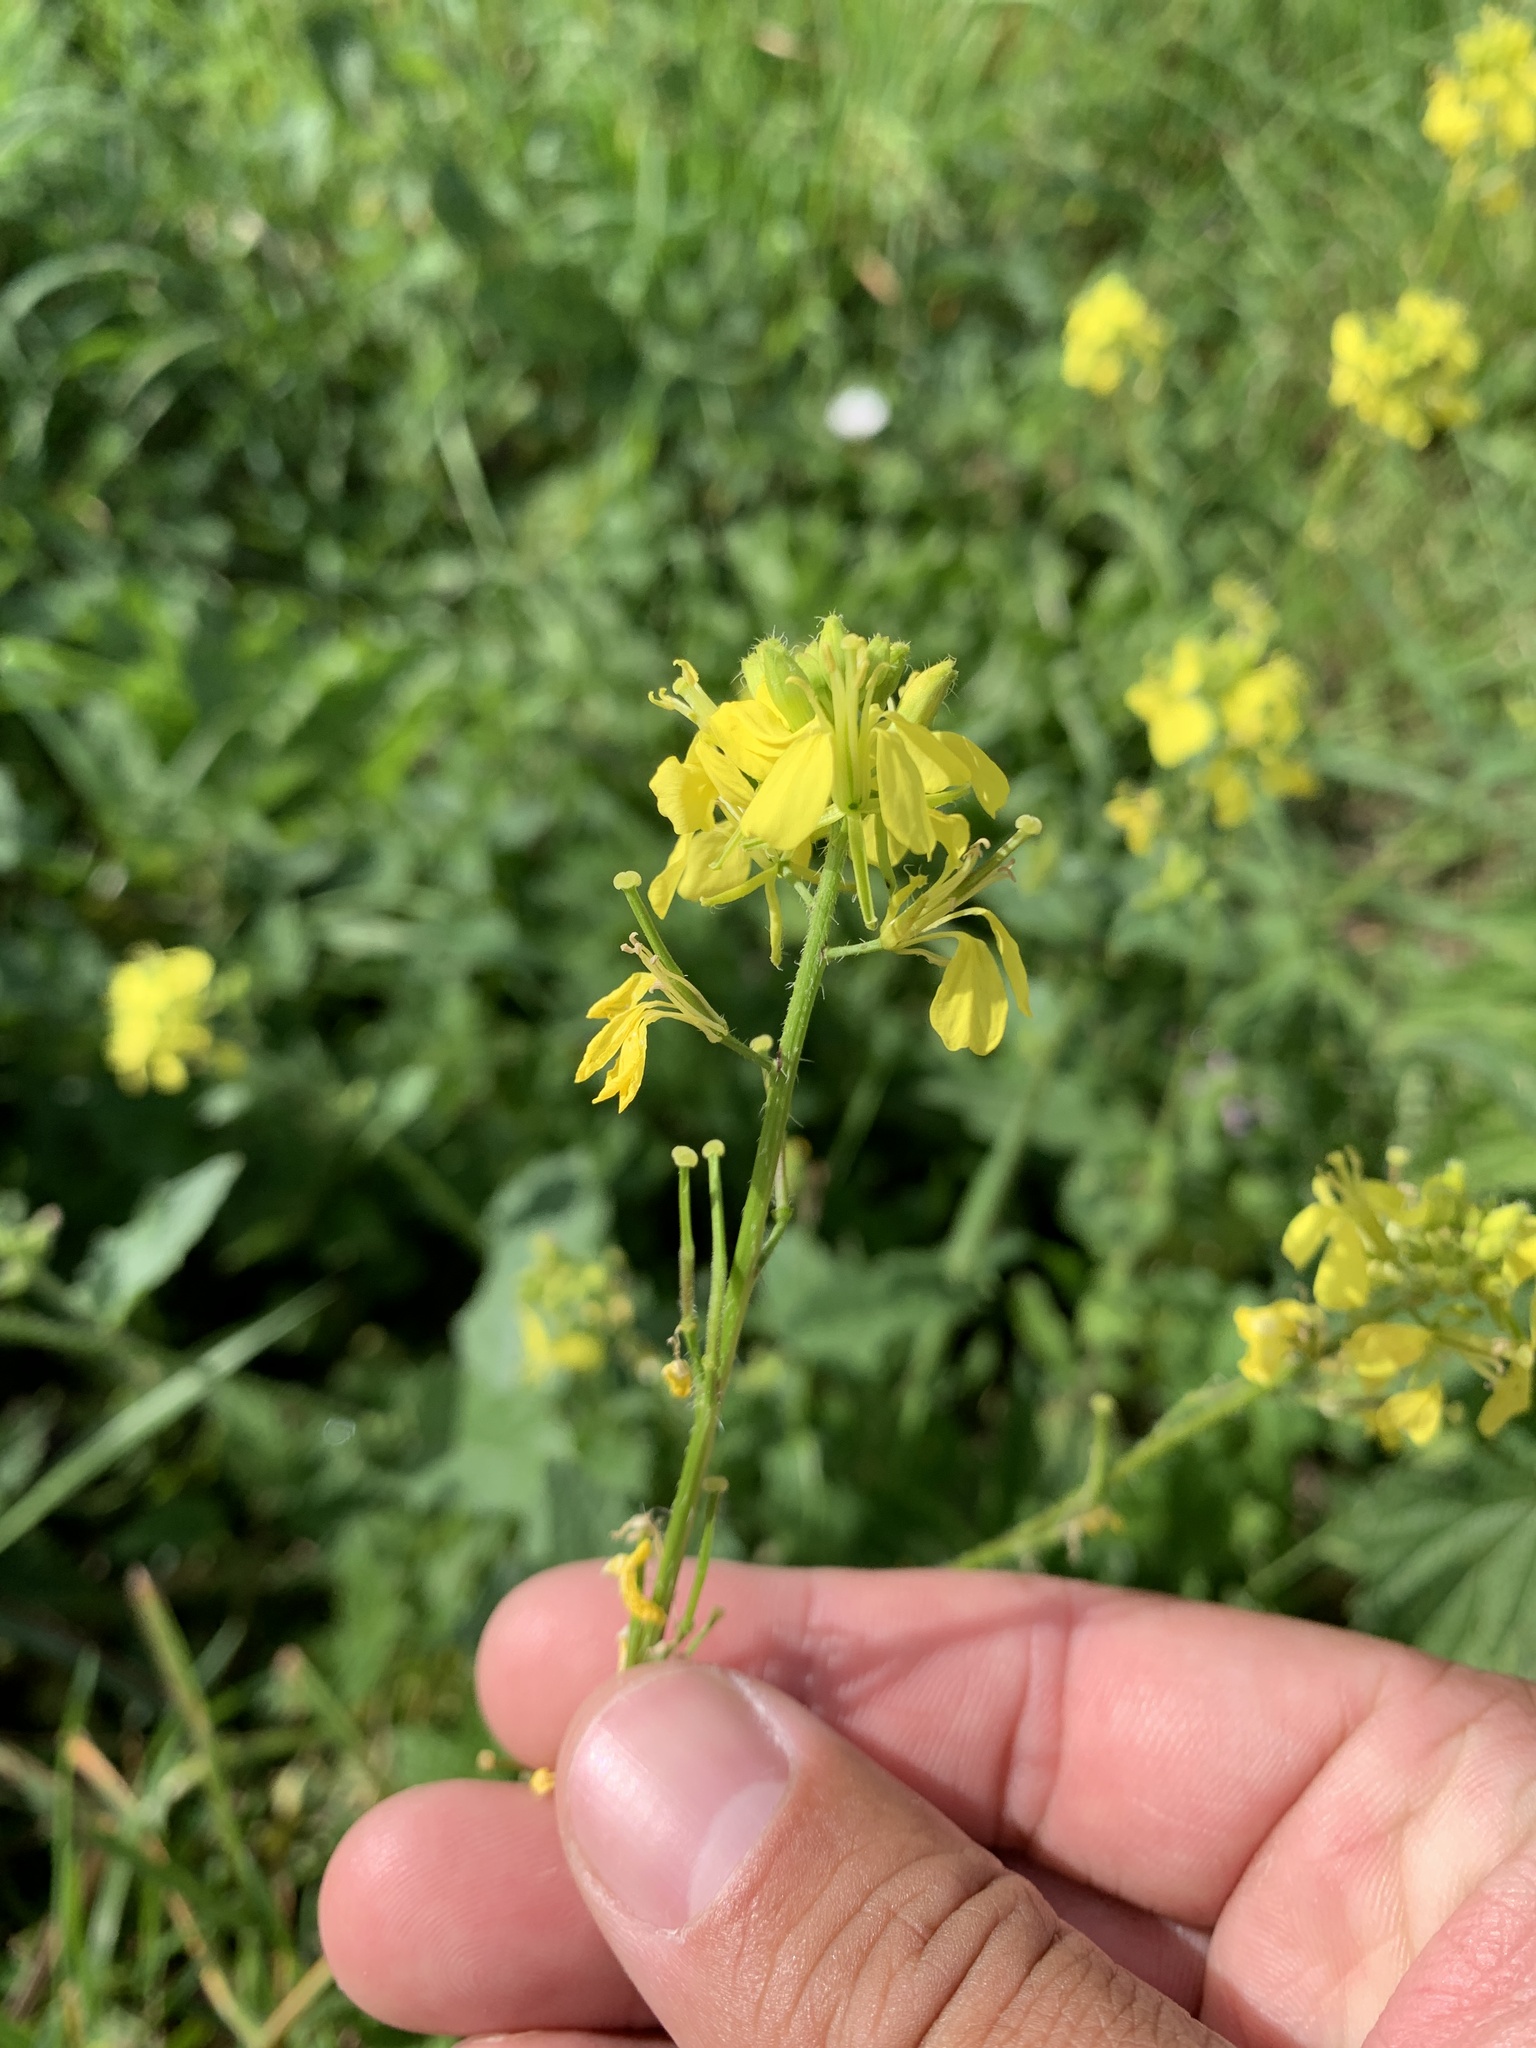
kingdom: Plantae
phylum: Tracheophyta
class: Magnoliopsida
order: Brassicales
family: Brassicaceae
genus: Sinapis
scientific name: Sinapis alba
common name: White mustard
